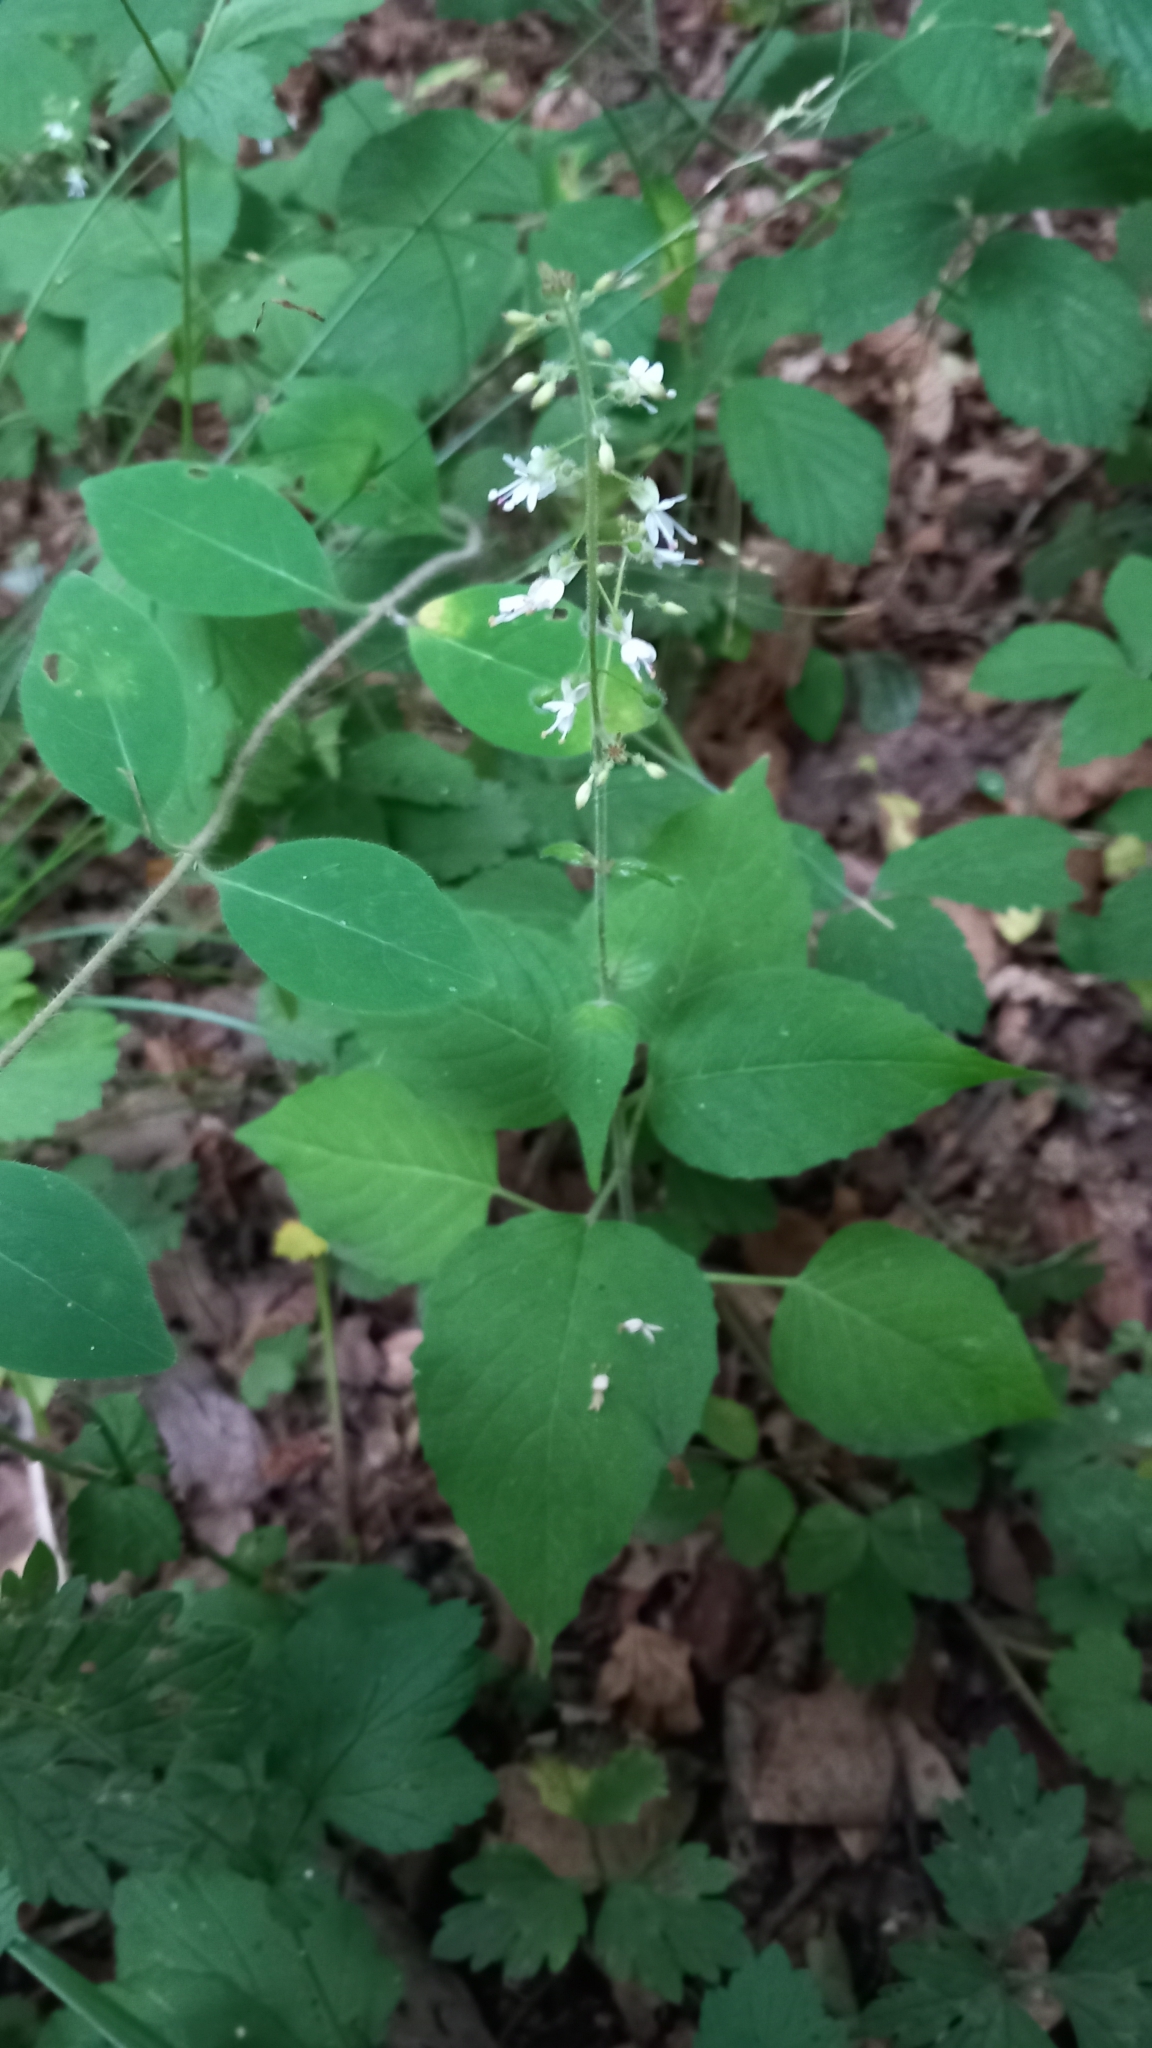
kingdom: Plantae
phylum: Tracheophyta
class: Magnoliopsida
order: Myrtales
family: Onagraceae
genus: Circaea
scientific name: Circaea lutetiana
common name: Enchanter's-nightshade
